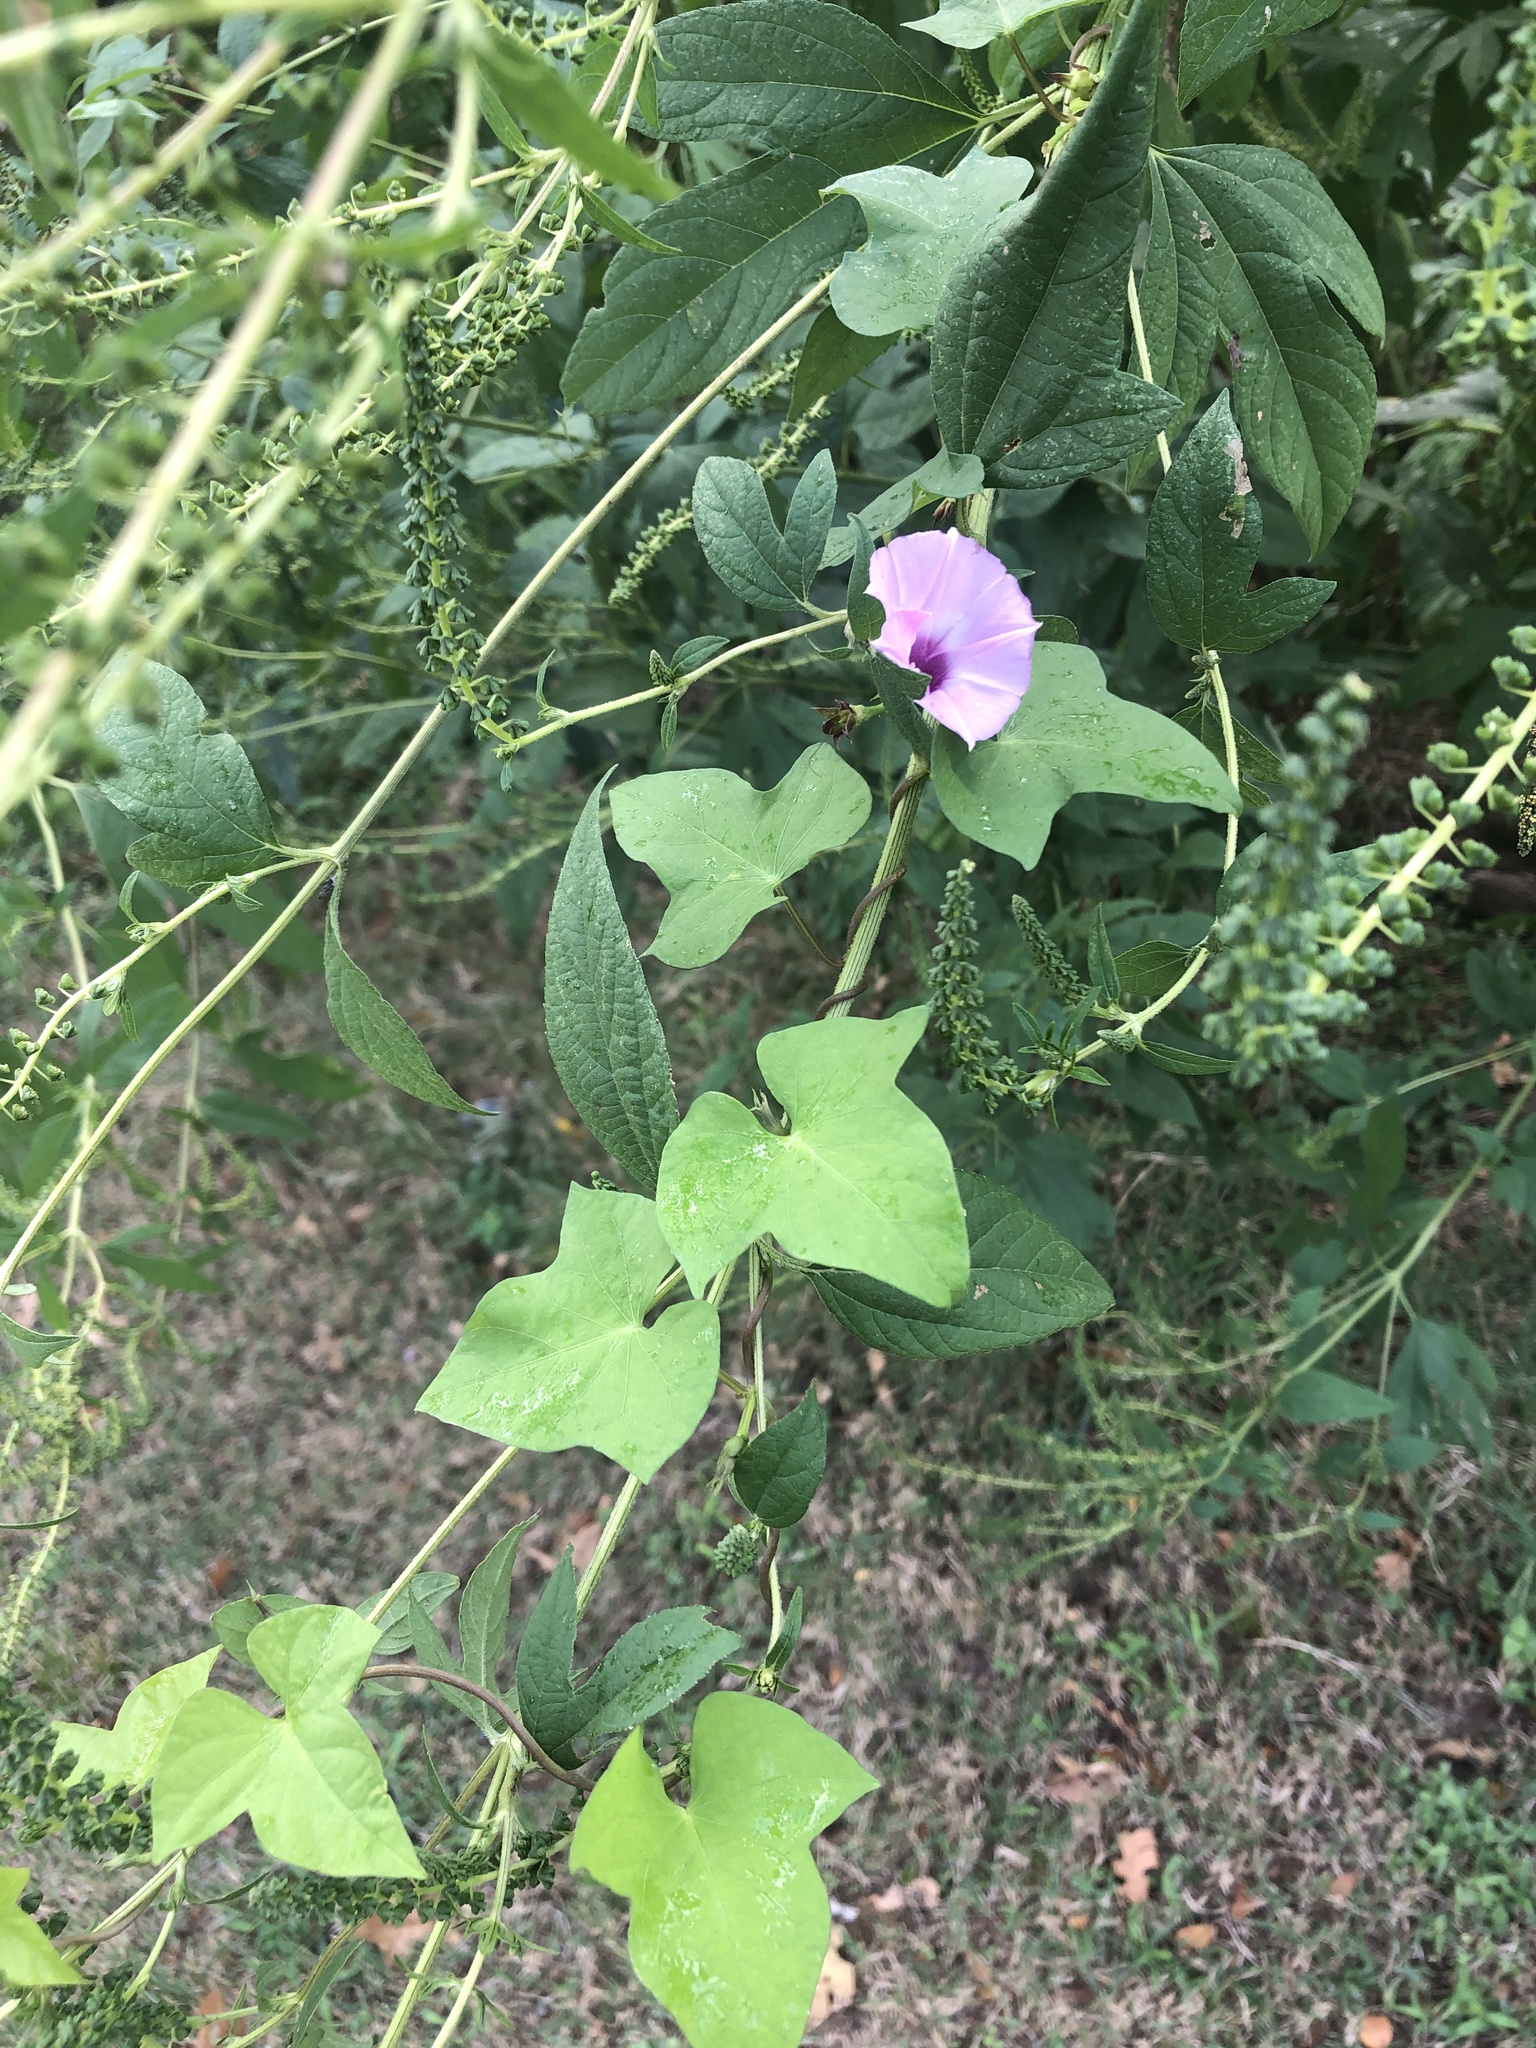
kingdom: Plantae
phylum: Tracheophyta
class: Magnoliopsida
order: Solanales
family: Convolvulaceae
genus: Ipomoea
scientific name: Ipomoea cordatotriloba
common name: Cotton morning glory
